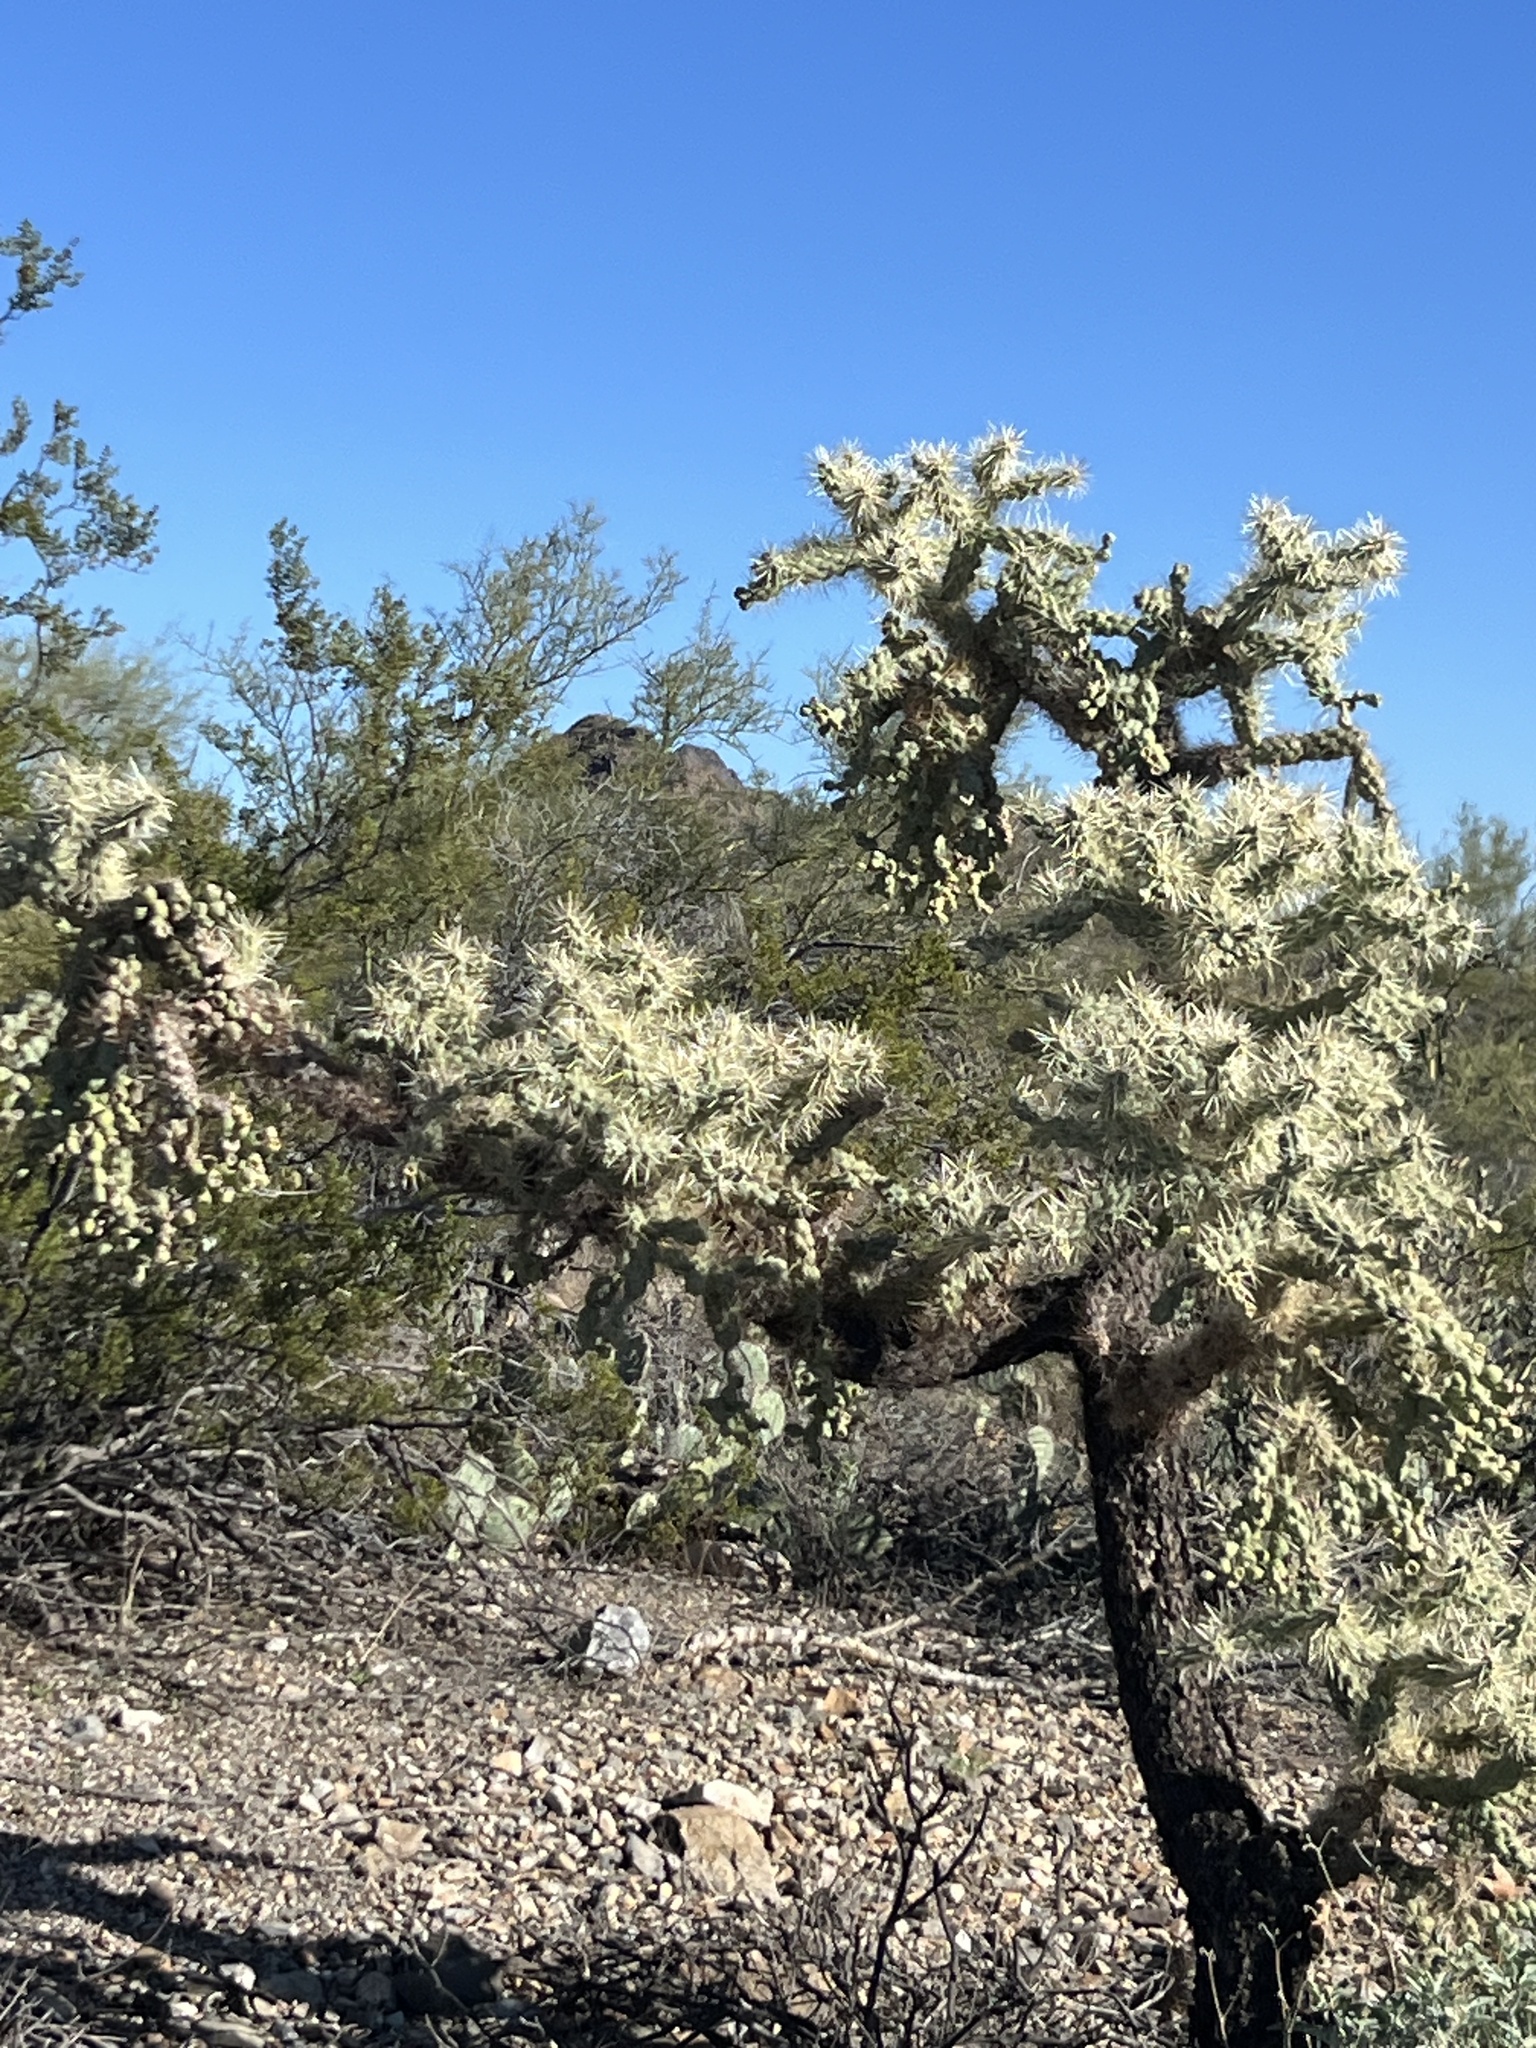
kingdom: Plantae
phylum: Tracheophyta
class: Magnoliopsida
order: Caryophyllales
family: Cactaceae
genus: Cylindropuntia
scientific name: Cylindropuntia fulgida
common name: Jumping cholla
